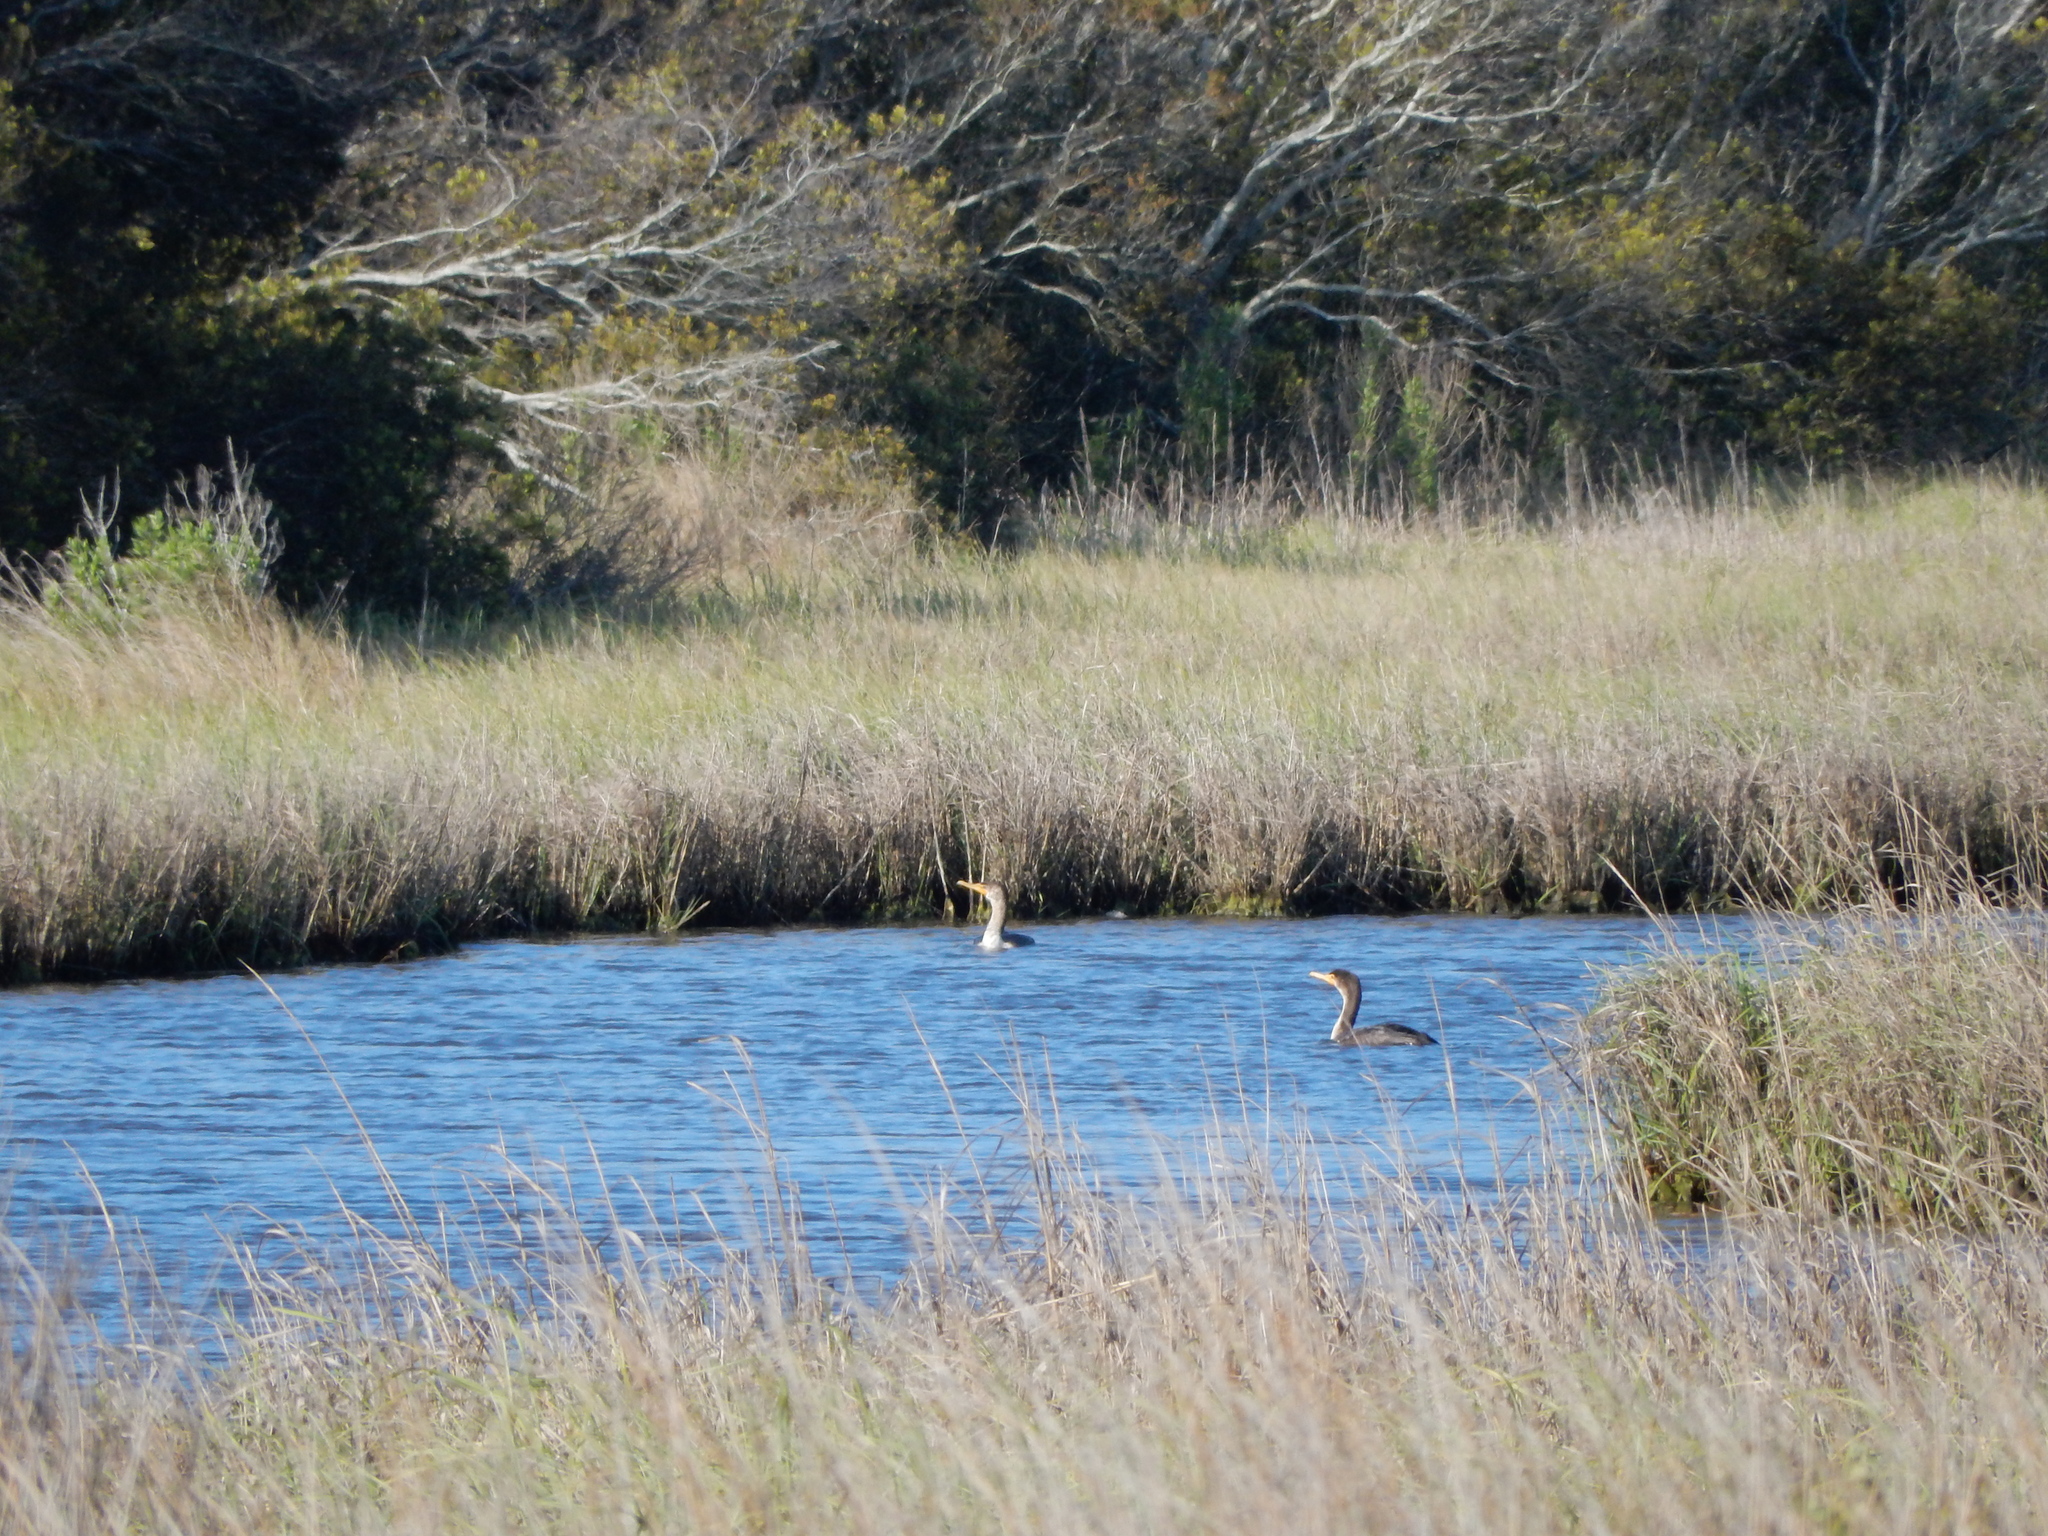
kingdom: Animalia
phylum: Chordata
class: Aves
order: Suliformes
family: Phalacrocoracidae
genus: Phalacrocorax
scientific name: Phalacrocorax auritus
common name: Double-crested cormorant
